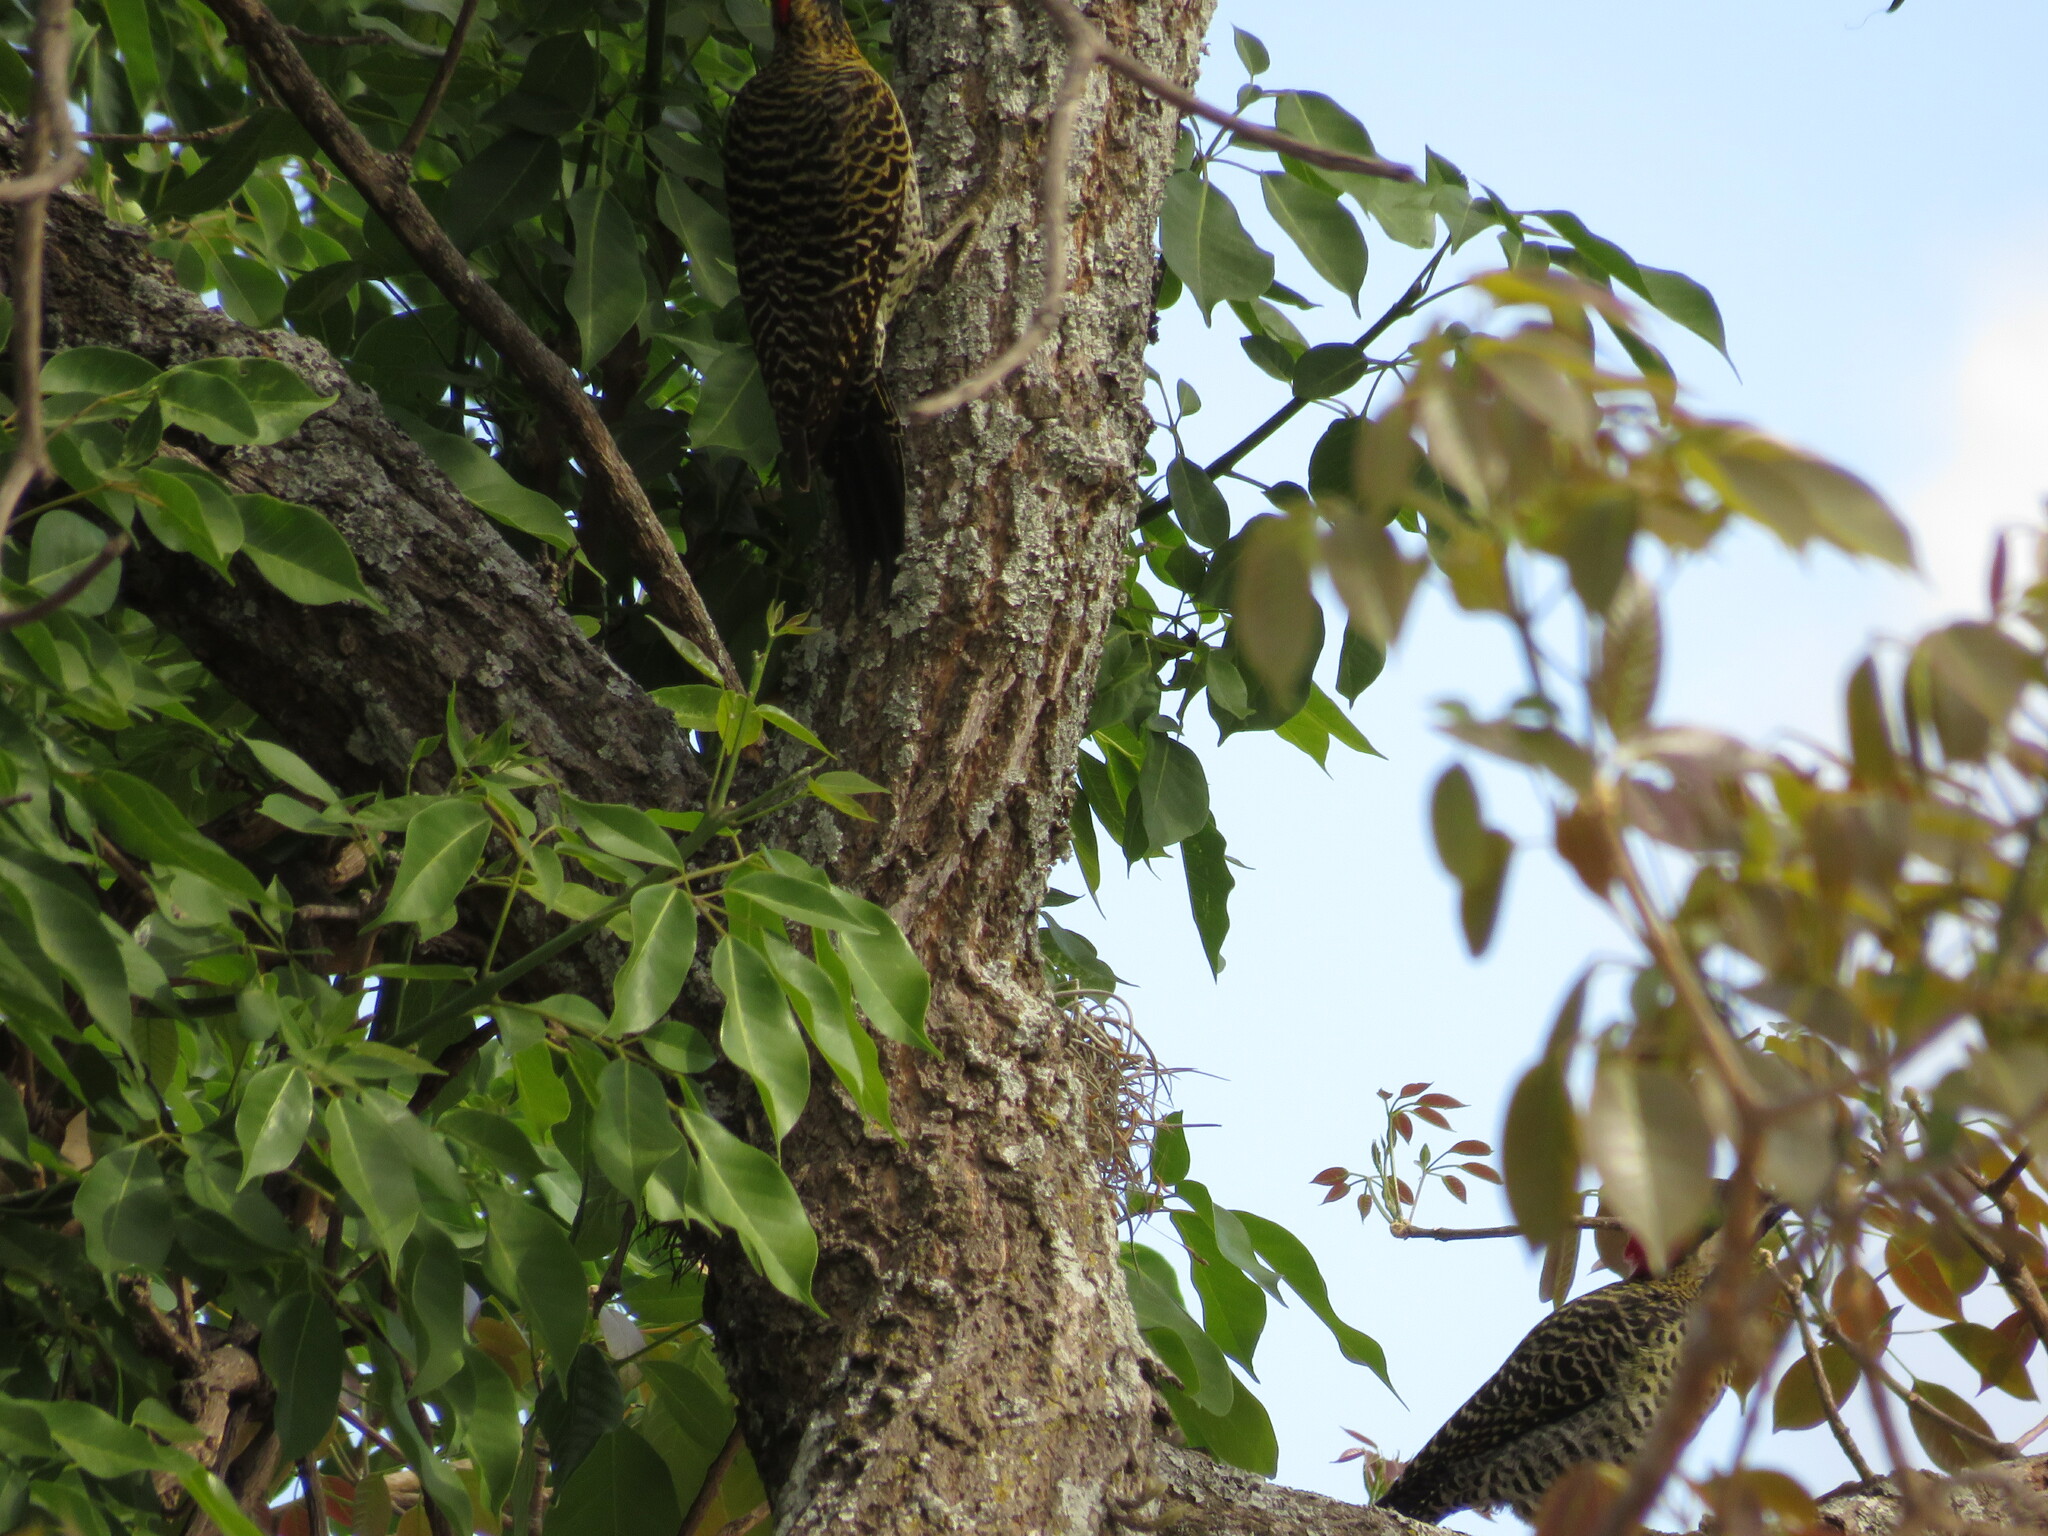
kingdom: Animalia
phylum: Chordata
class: Aves
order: Piciformes
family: Picidae
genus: Colaptes
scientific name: Colaptes melanochloros
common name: Green-barred woodpecker
